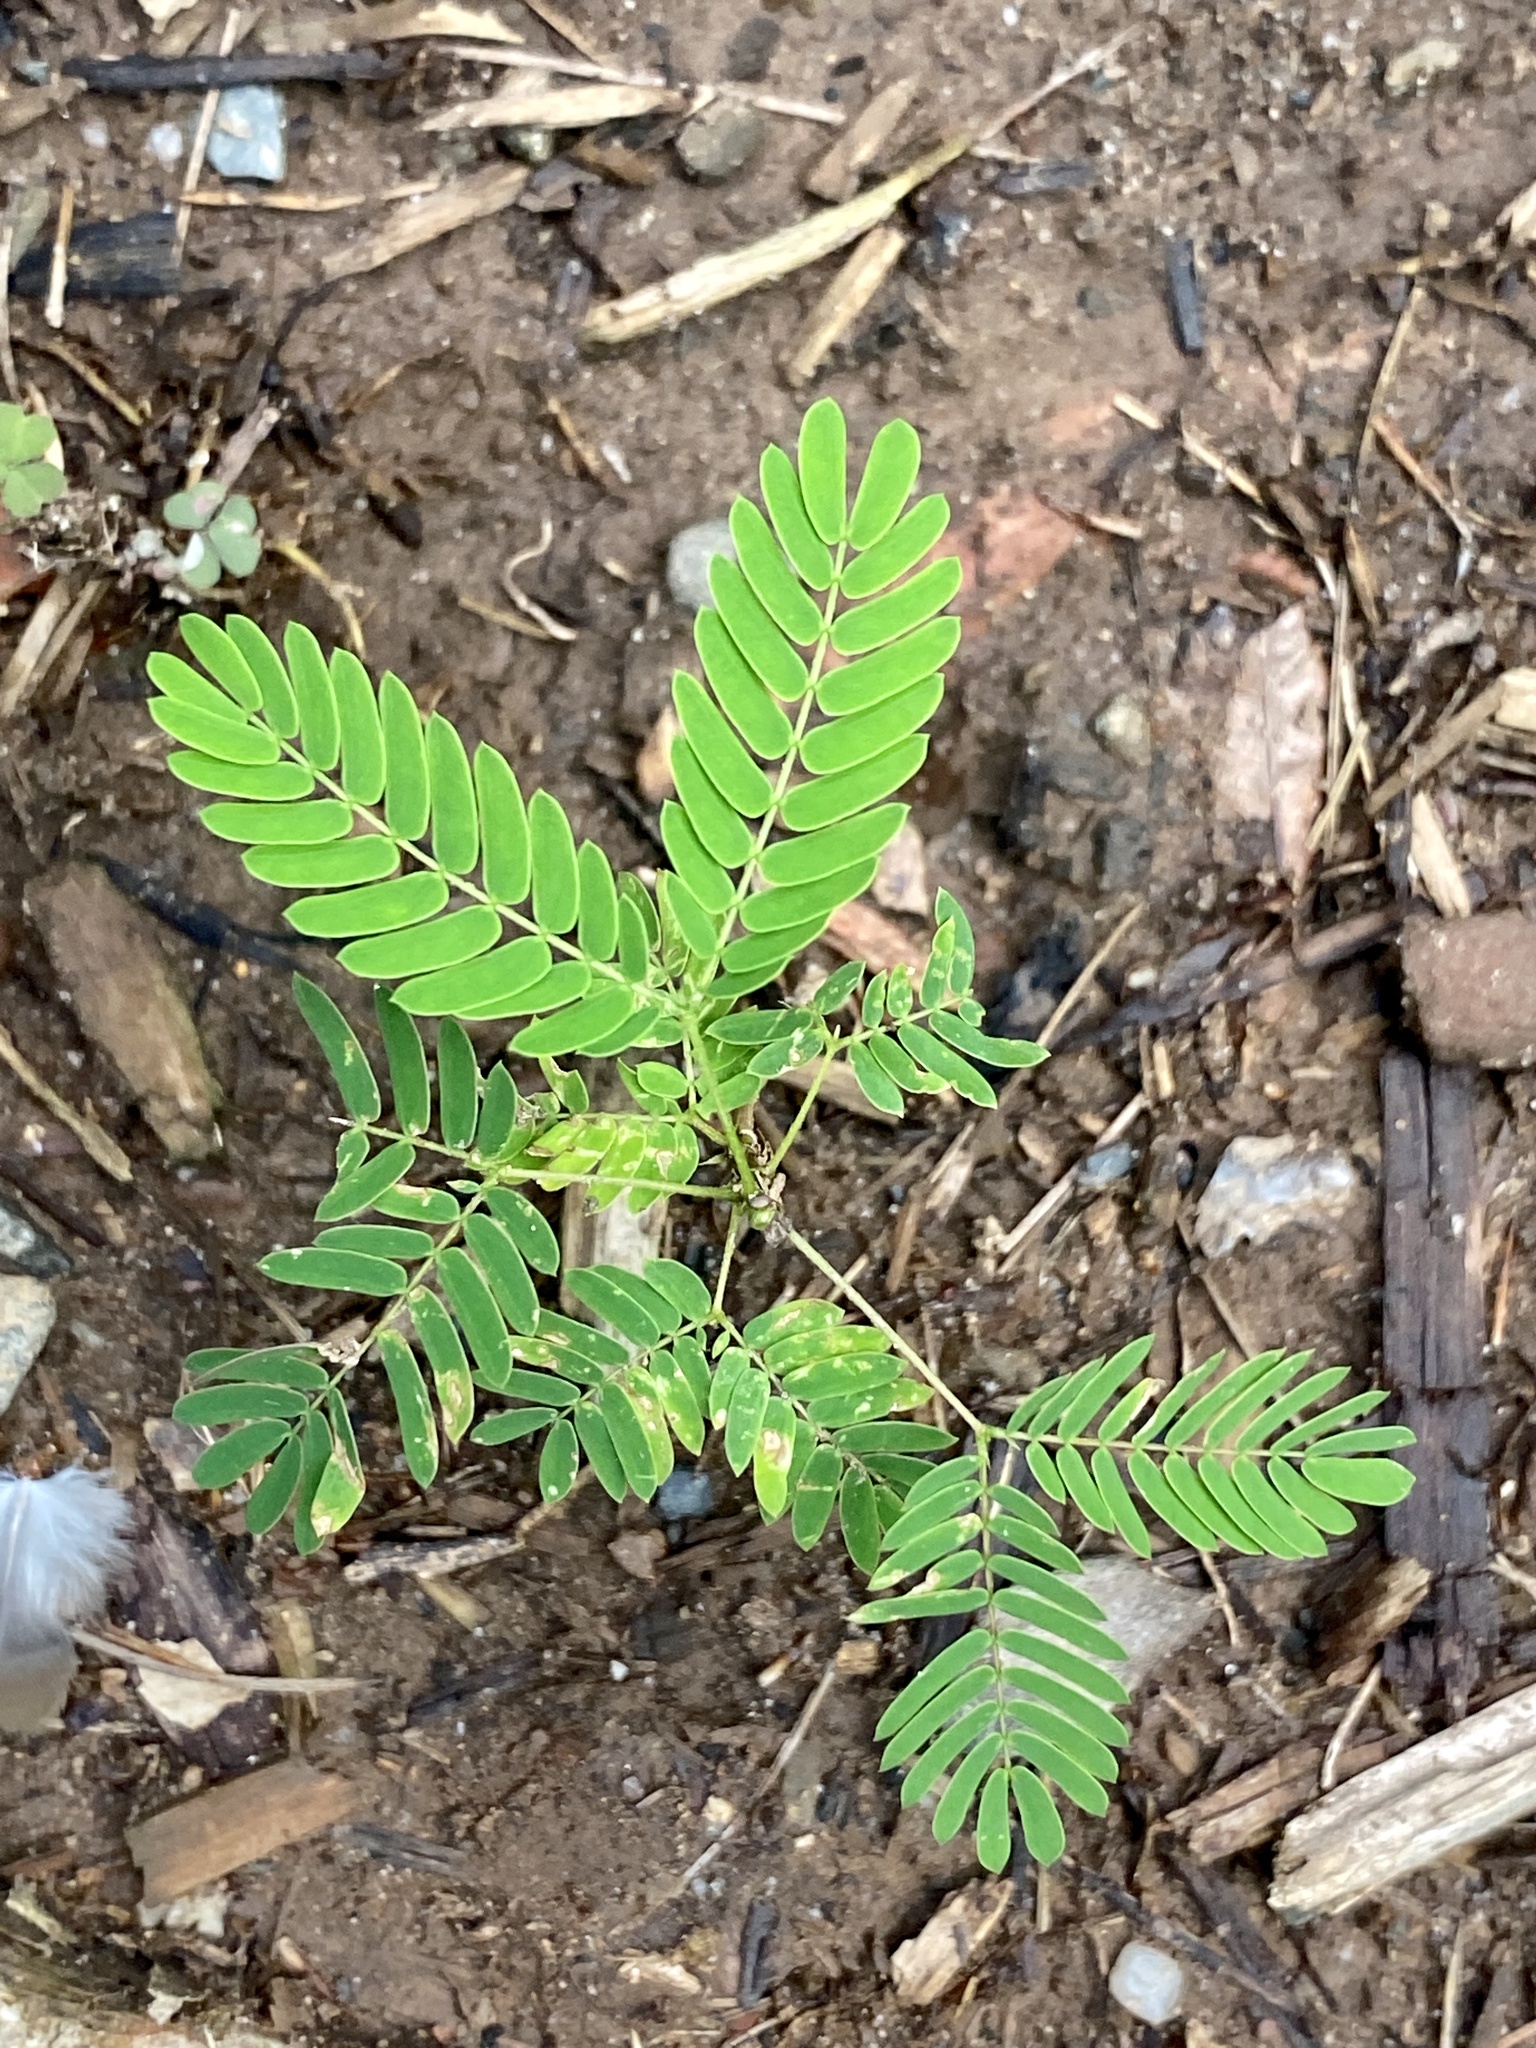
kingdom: Plantae
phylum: Tracheophyta
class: Magnoliopsida
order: Fabales
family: Fabaceae
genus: Albizia
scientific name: Albizia julibrissin
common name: Silktree
